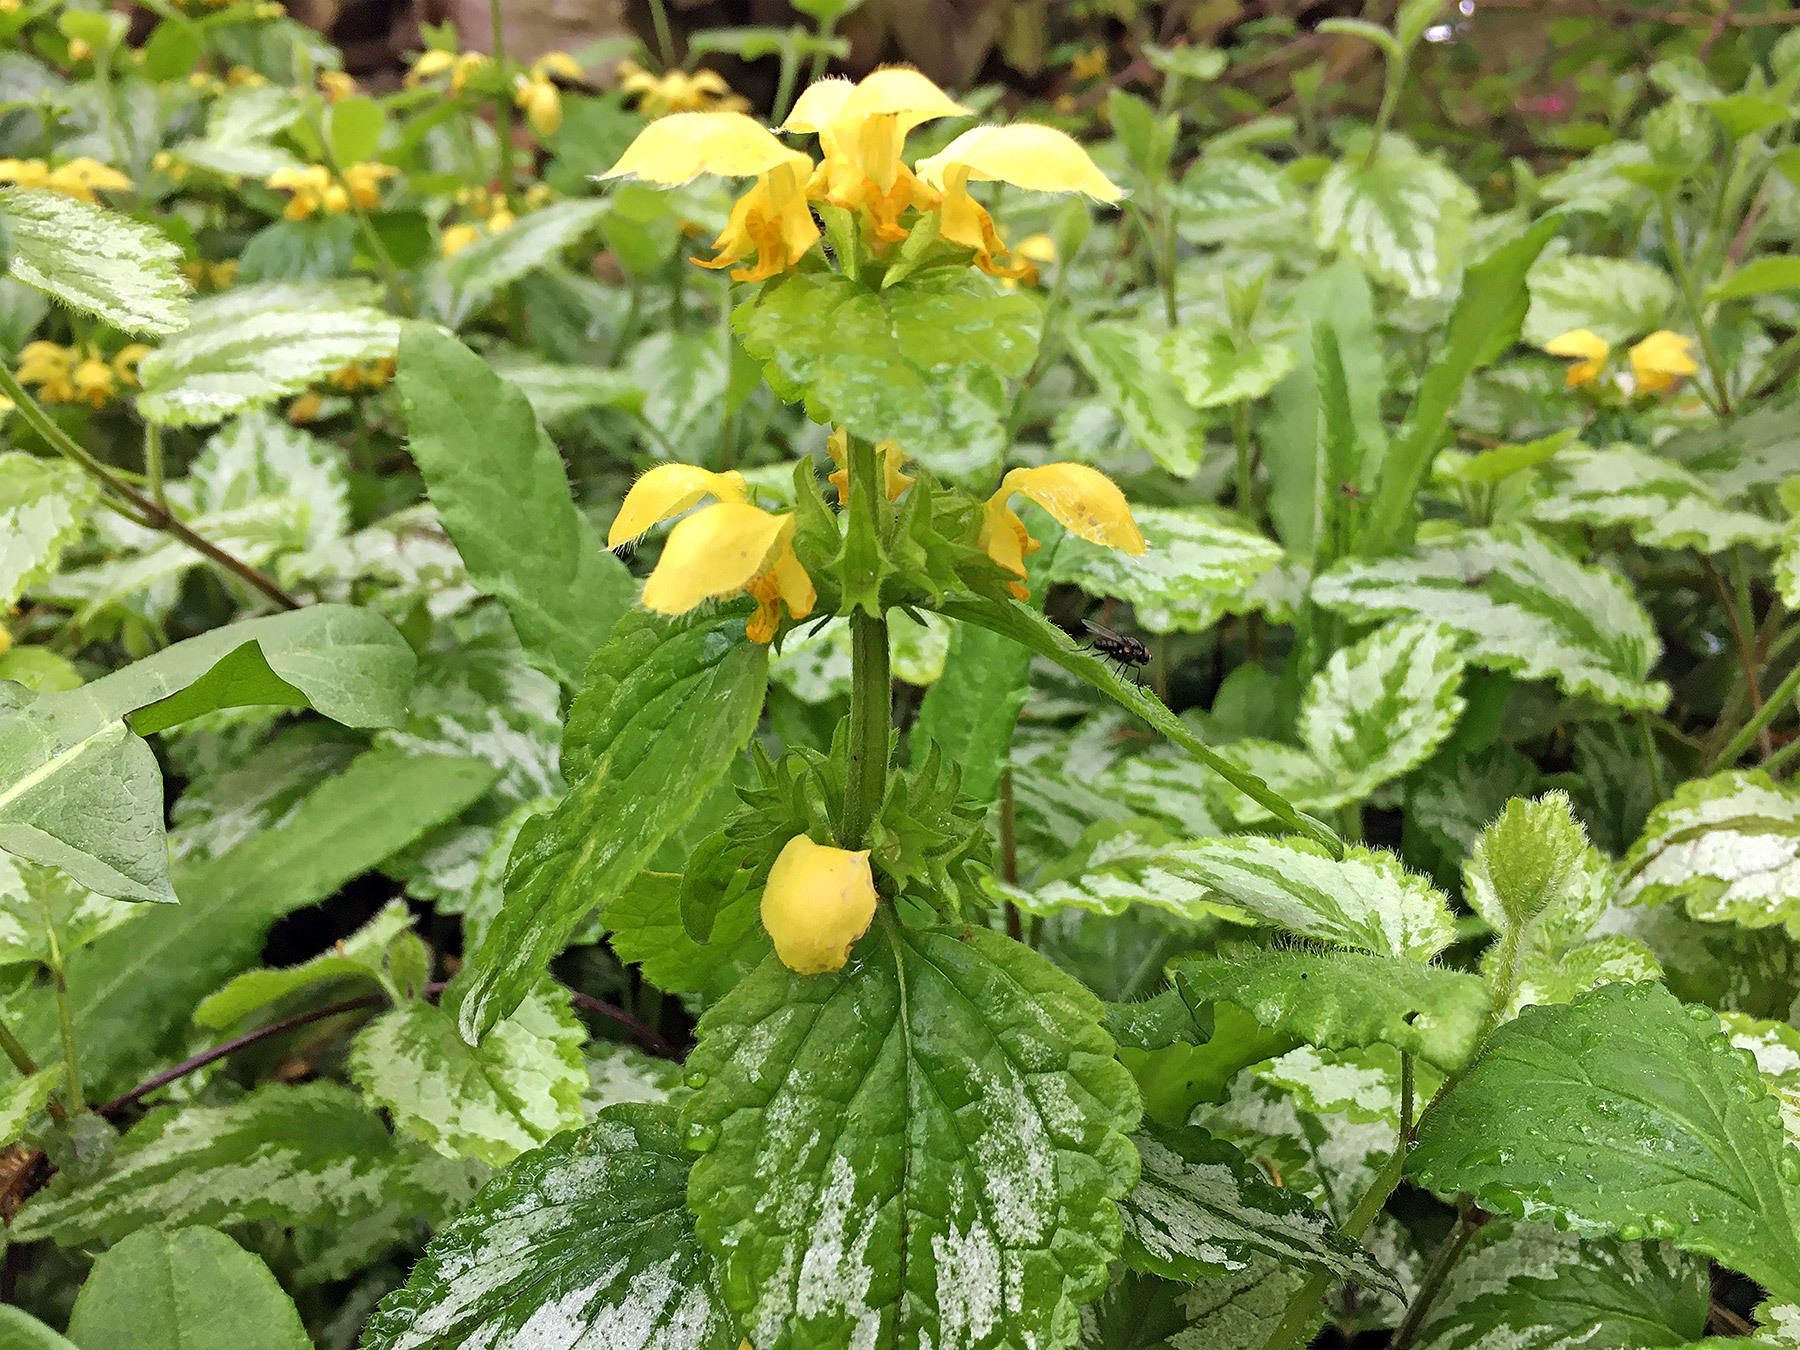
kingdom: Plantae
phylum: Tracheophyta
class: Magnoliopsida
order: Lamiales
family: Lamiaceae
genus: Lamium
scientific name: Lamium galeobdolon
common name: Yellow archangel
